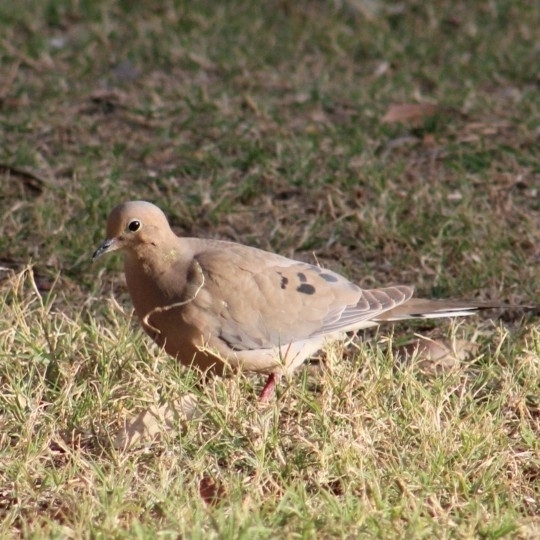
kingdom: Animalia
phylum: Chordata
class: Aves
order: Columbiformes
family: Columbidae
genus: Zenaida
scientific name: Zenaida macroura
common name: Mourning dove
